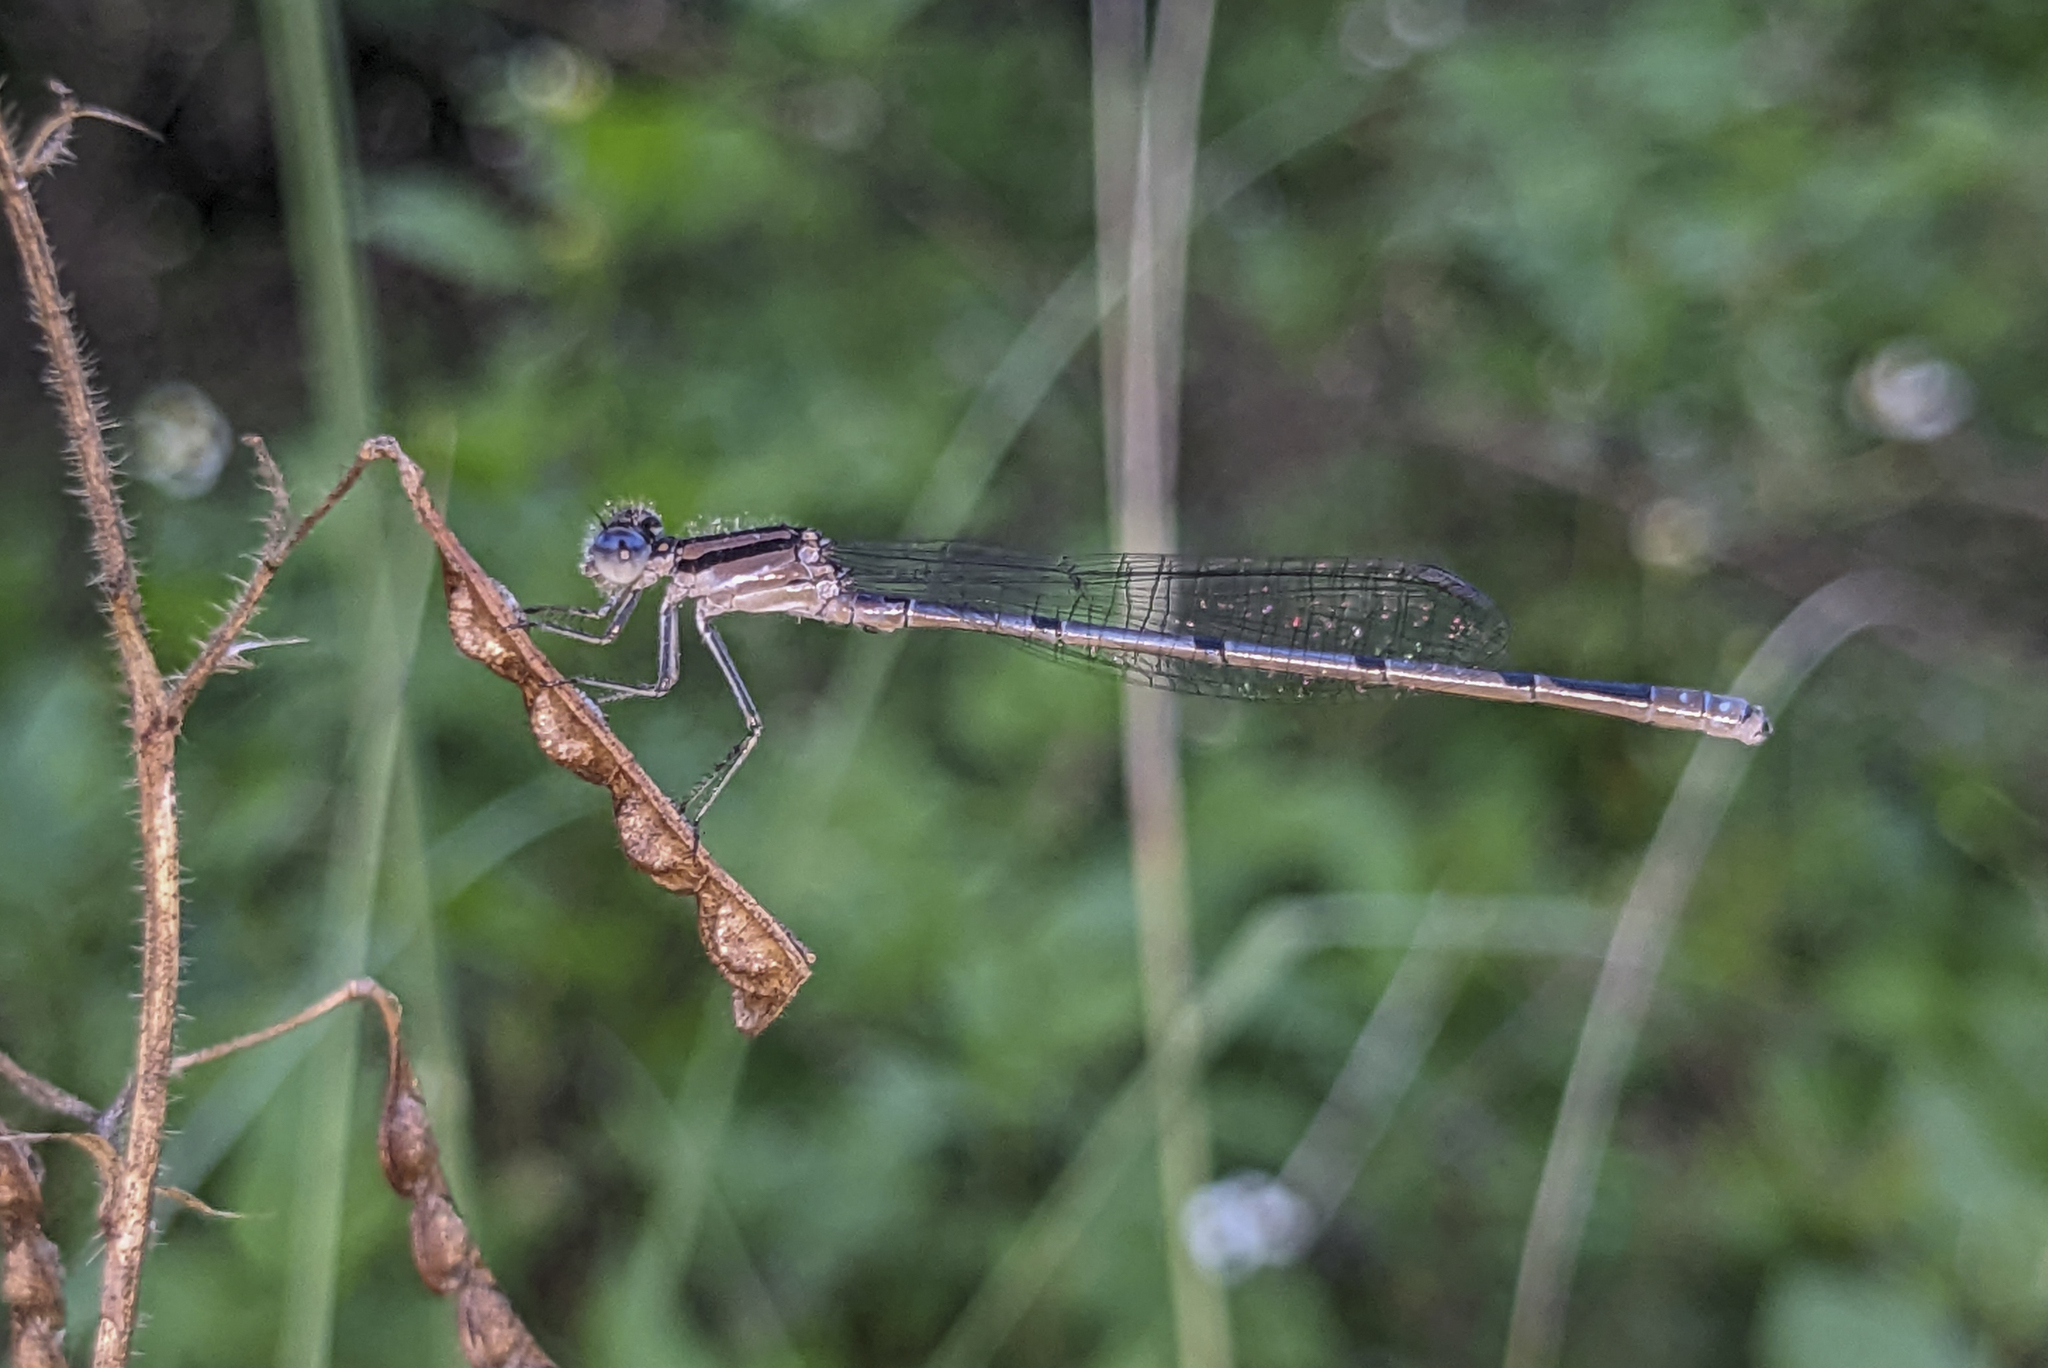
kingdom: Animalia
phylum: Arthropoda
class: Insecta
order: Odonata
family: Coenagrionidae
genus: Enallagma
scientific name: Enallagma doubledayi
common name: Atlantic bluet
